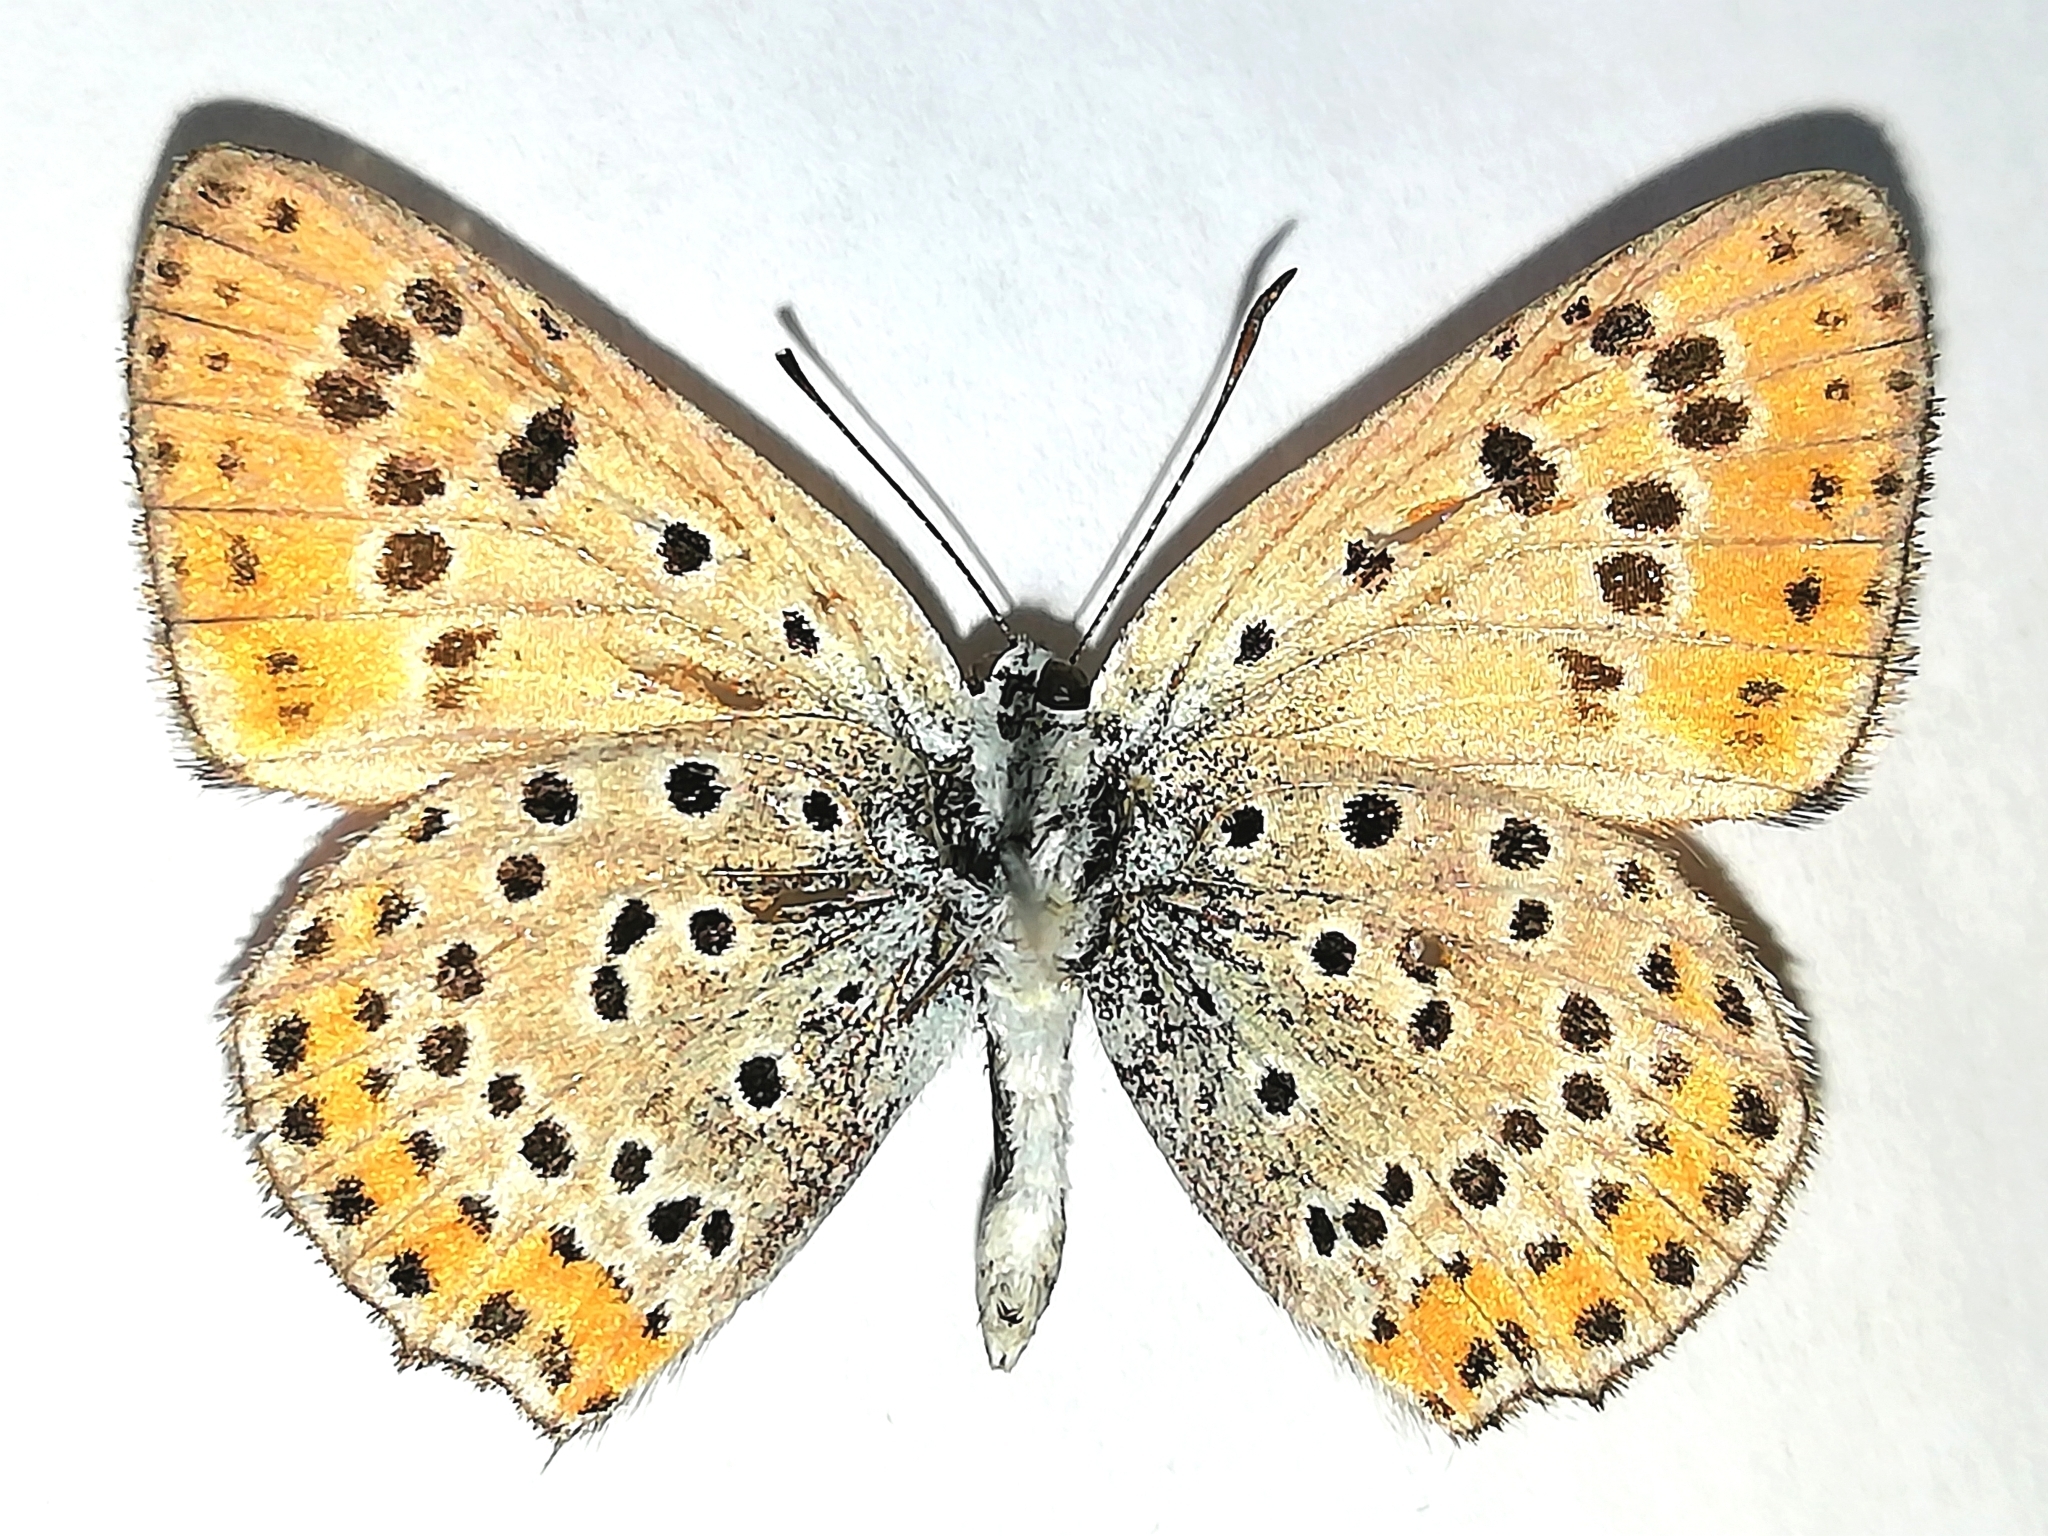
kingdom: Animalia
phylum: Arthropoda
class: Insecta
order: Lepidoptera
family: Lycaenidae
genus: Thersamonia
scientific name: Thersamonia thersamon
